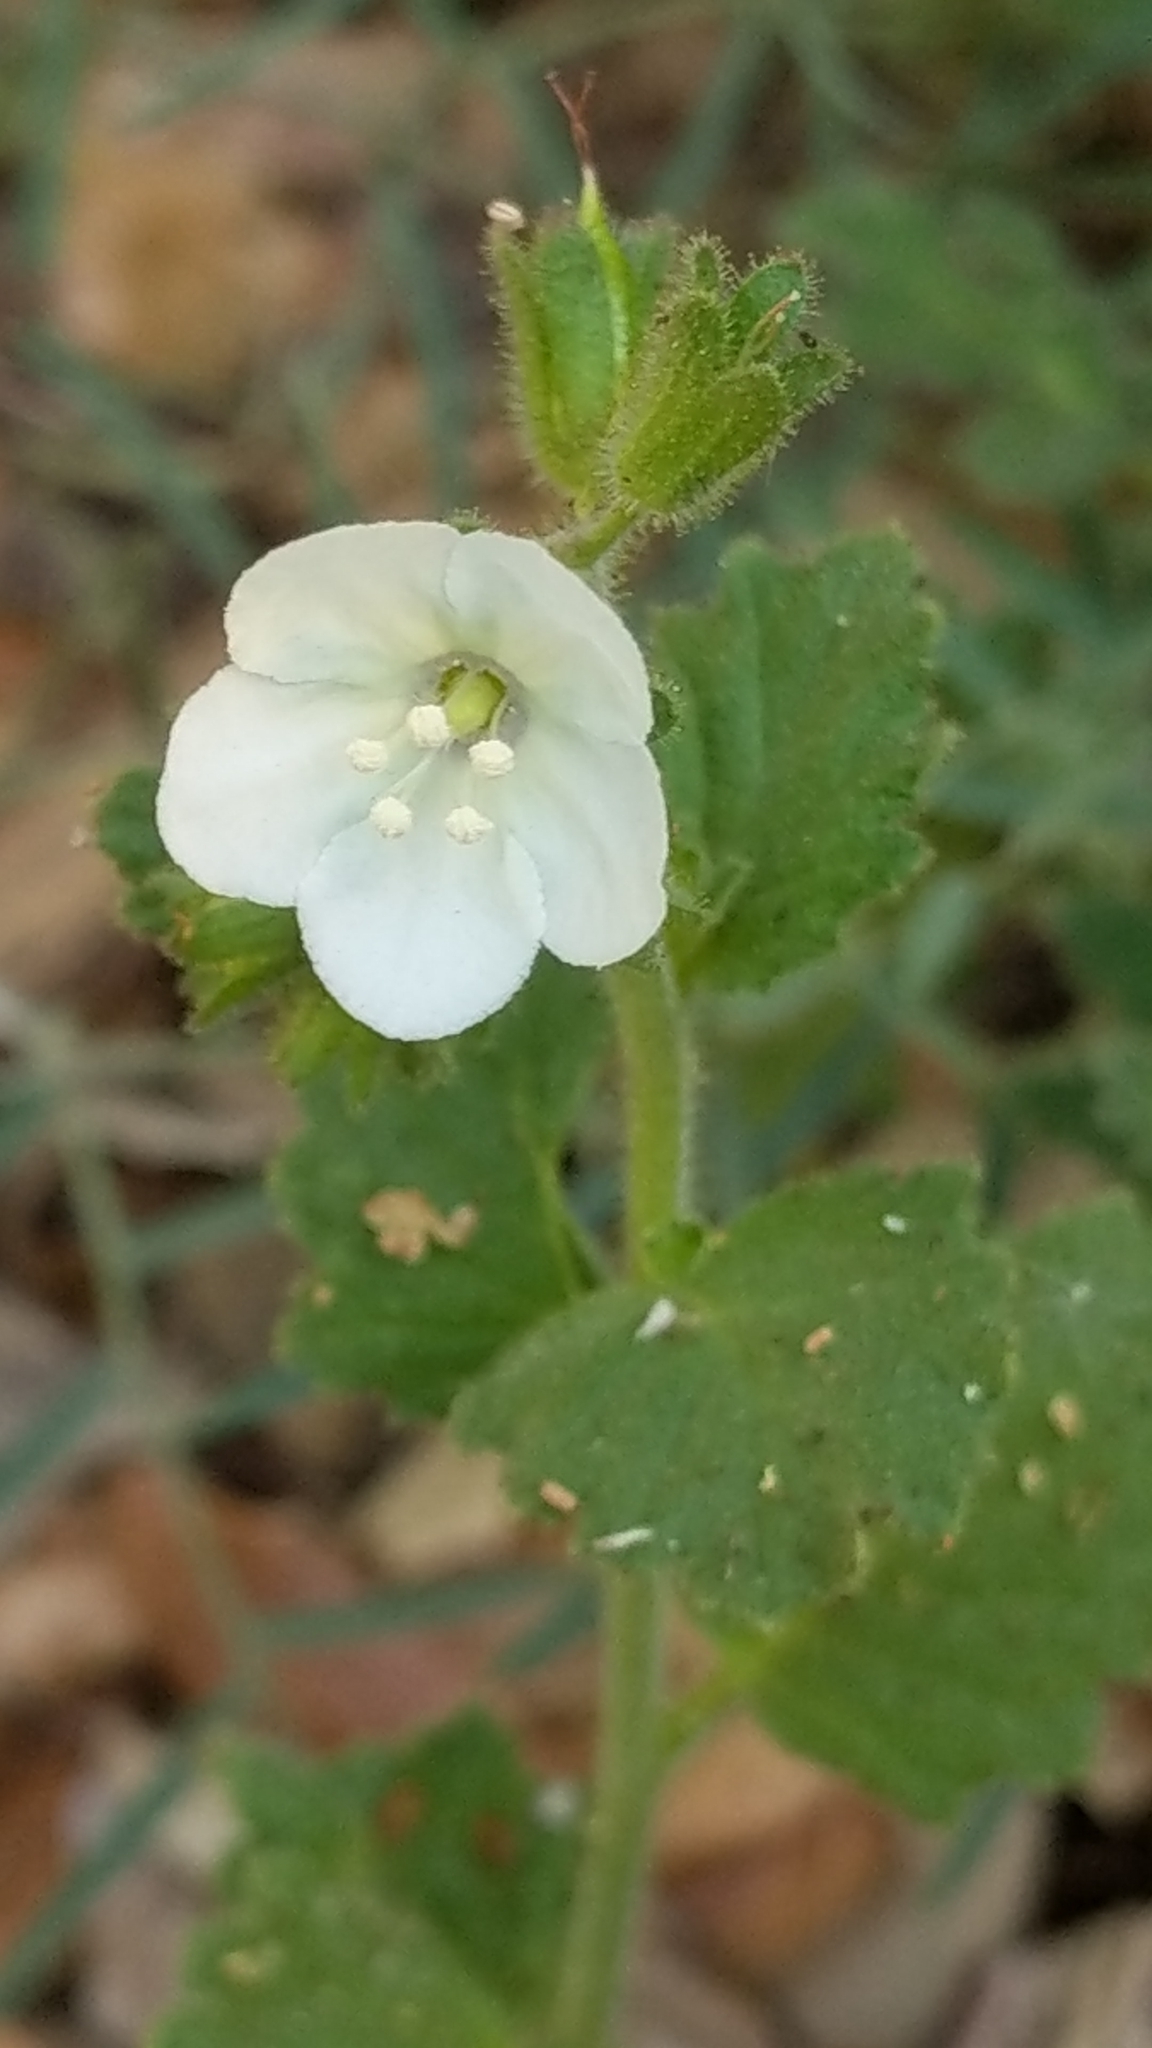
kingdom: Plantae
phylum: Tracheophyta
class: Magnoliopsida
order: Boraginales
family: Hydrophyllaceae
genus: Phacelia
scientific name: Phacelia viscida
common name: Sticky phacelia
